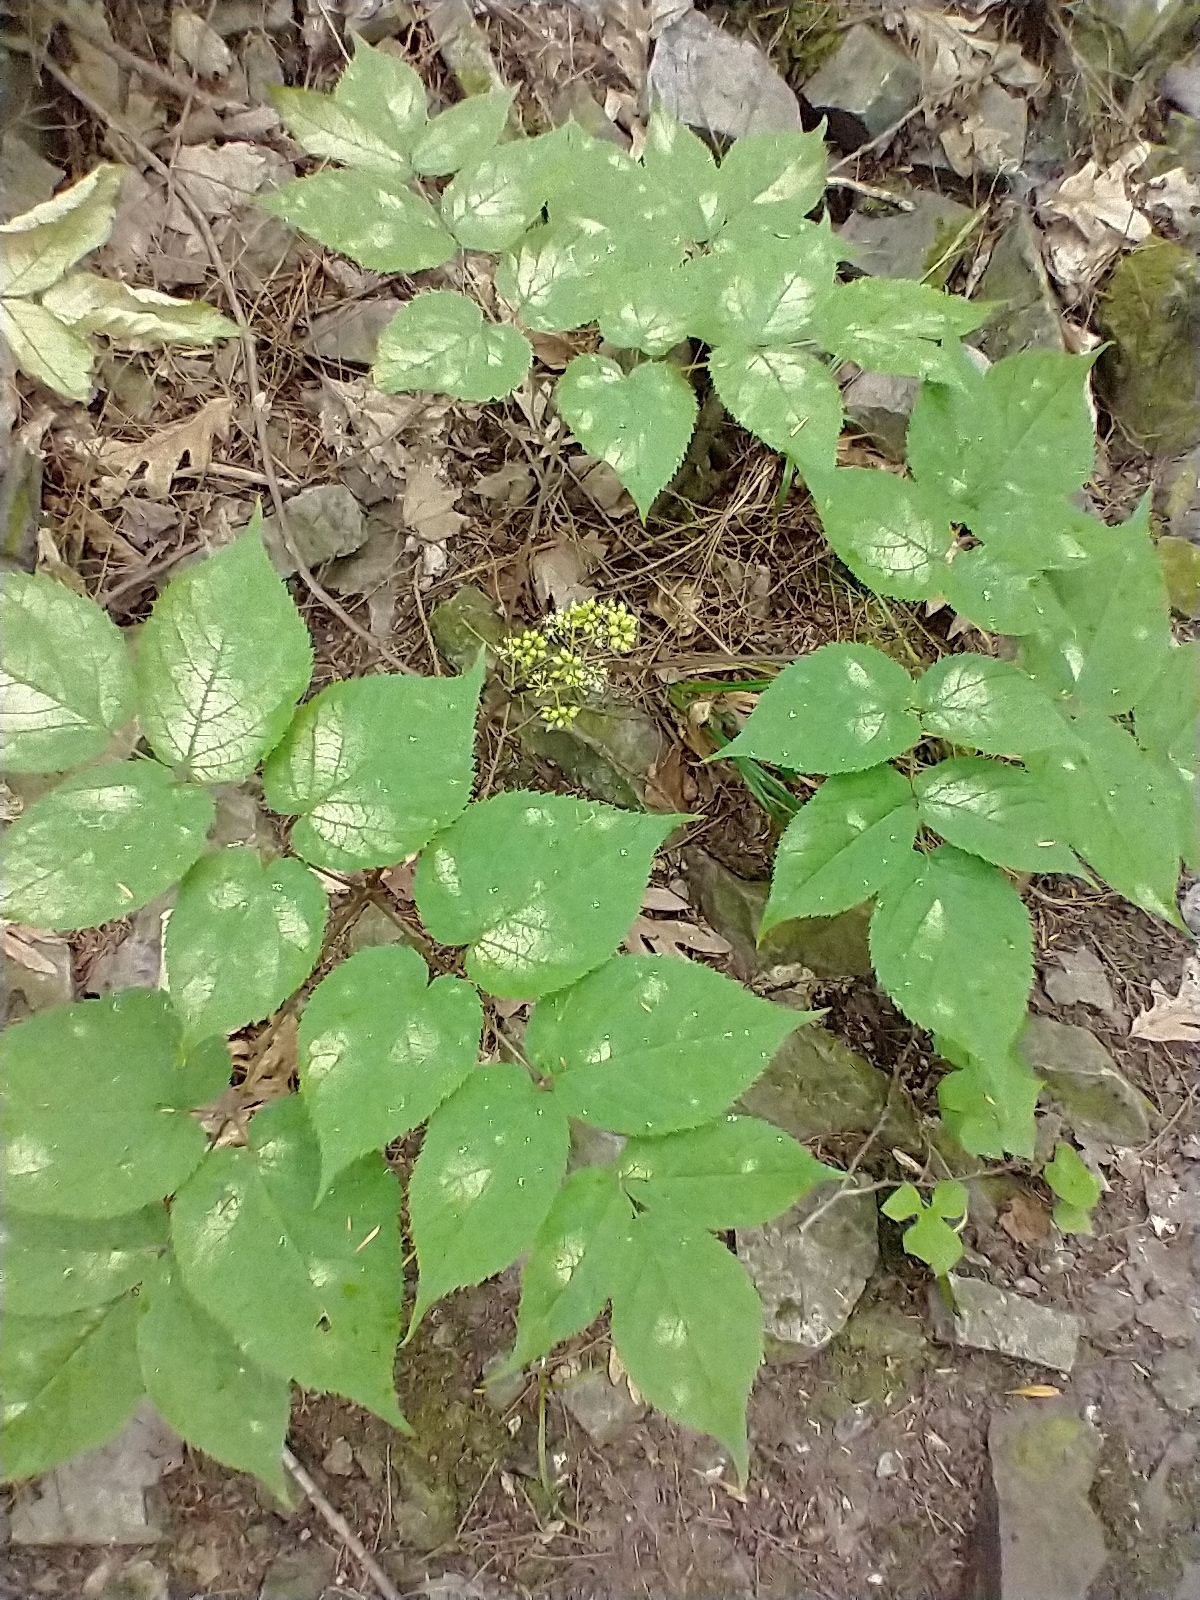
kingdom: Plantae
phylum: Tracheophyta
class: Magnoliopsida
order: Apiales
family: Araliaceae
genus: Aralia
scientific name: Aralia racemosa
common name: American-spikenard
